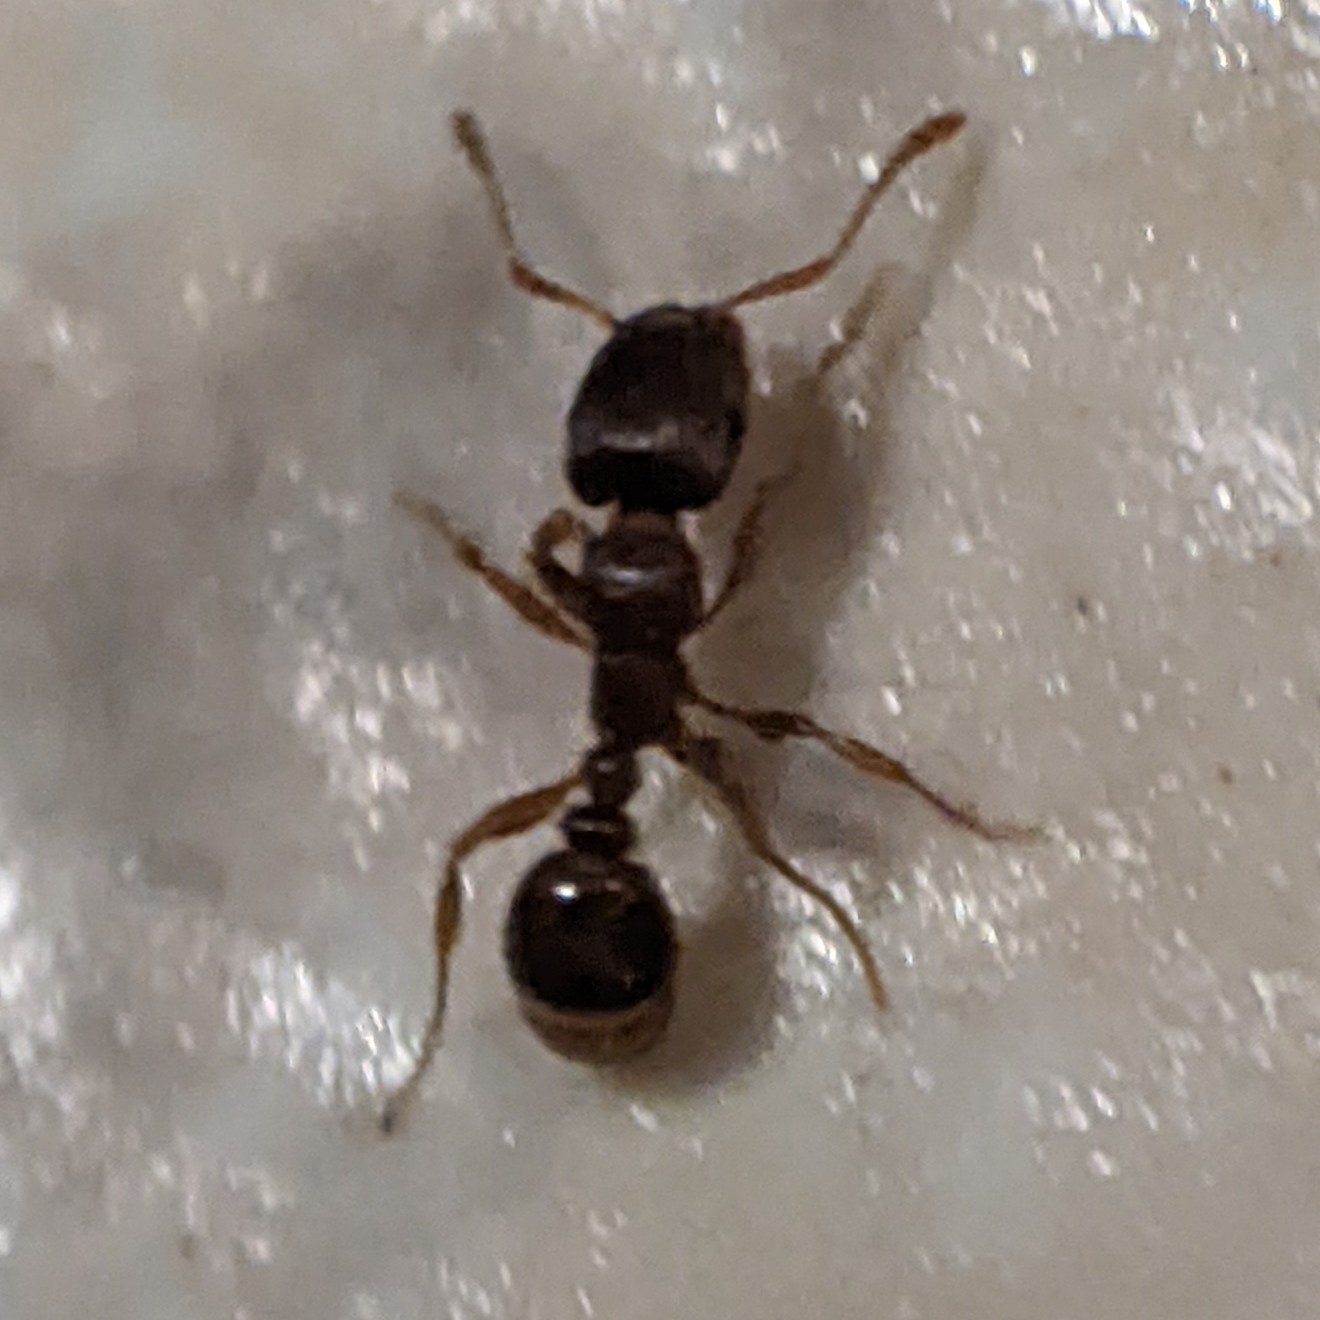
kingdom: Animalia
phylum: Arthropoda
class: Insecta
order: Hymenoptera
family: Formicidae
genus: Tetramorium
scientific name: Tetramorium immigrans
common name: Pavement ant
